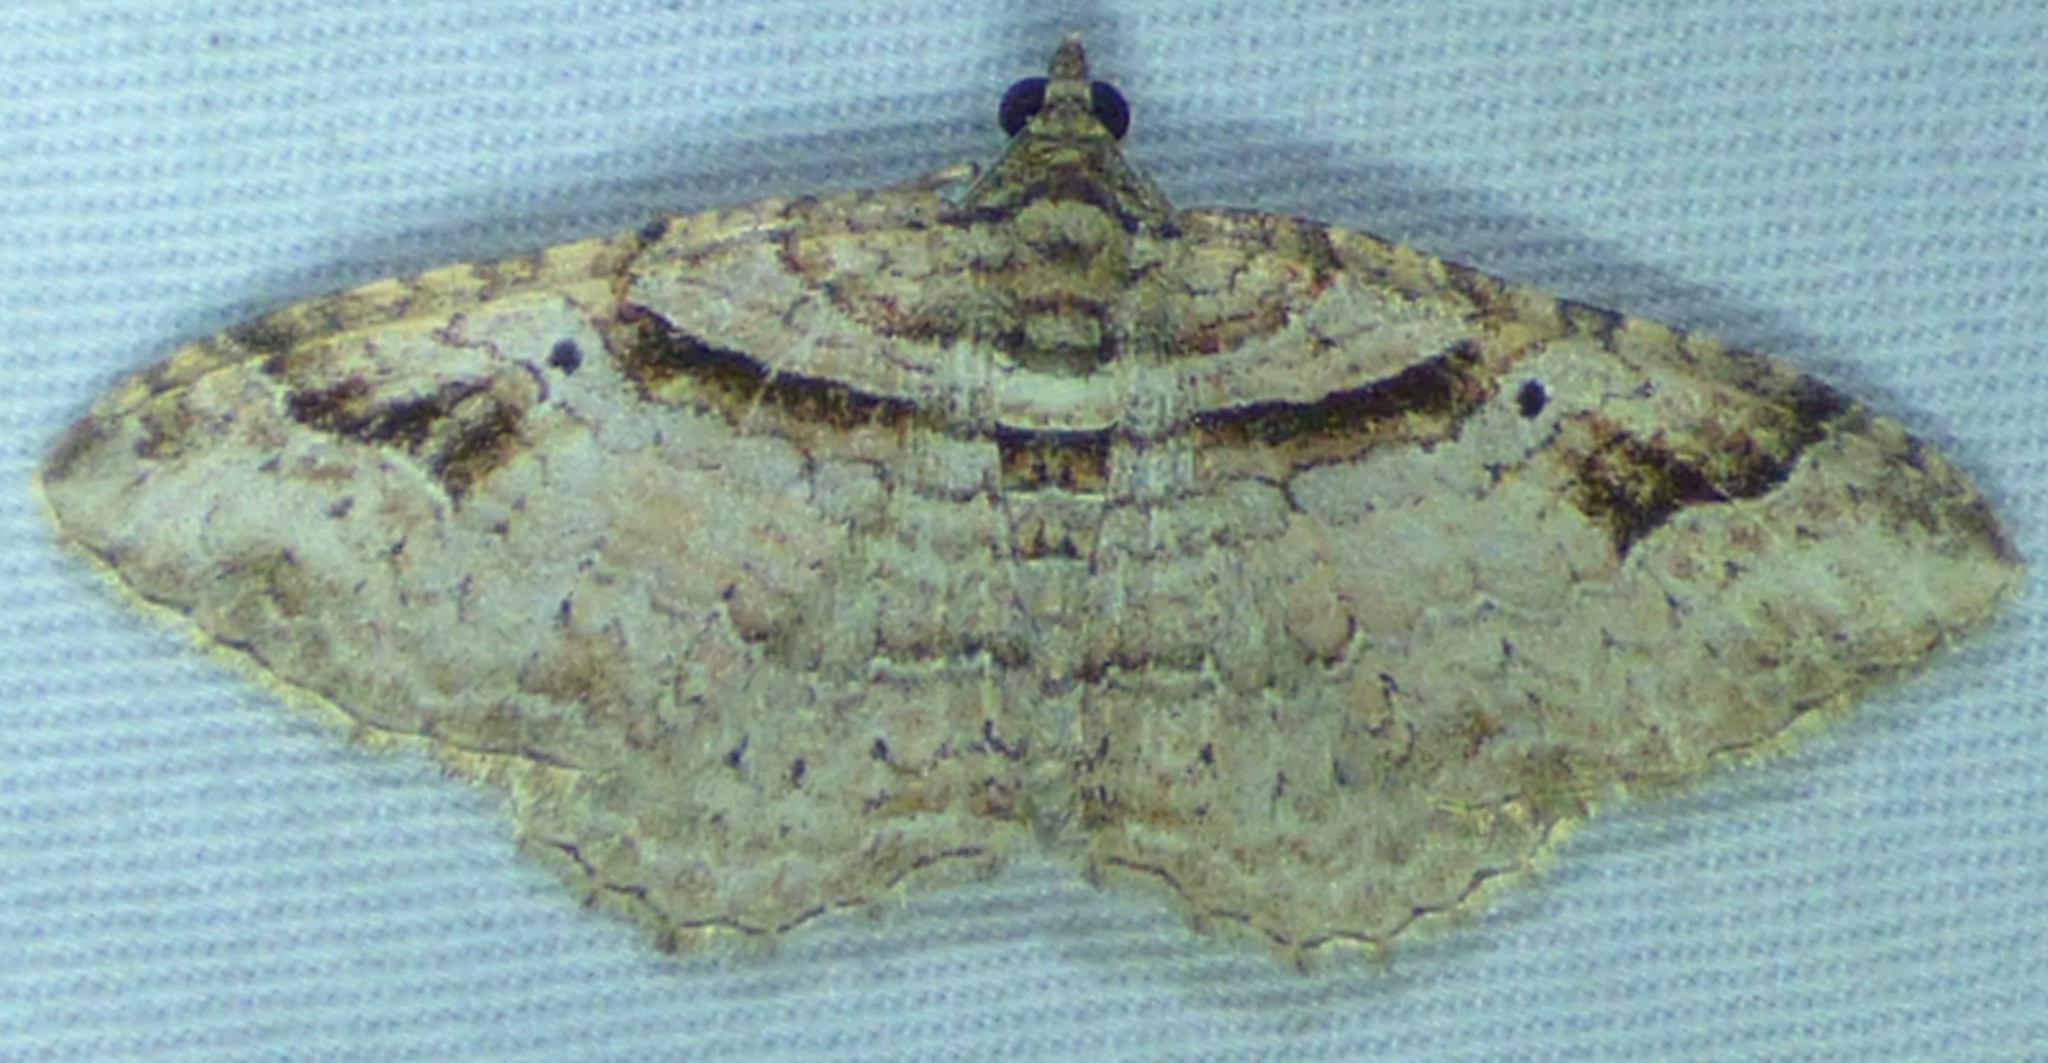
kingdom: Animalia
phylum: Arthropoda
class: Insecta
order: Lepidoptera
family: Geometridae
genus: Costaconvexa
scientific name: Costaconvexa centrostrigaria
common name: Bent-line carpet
